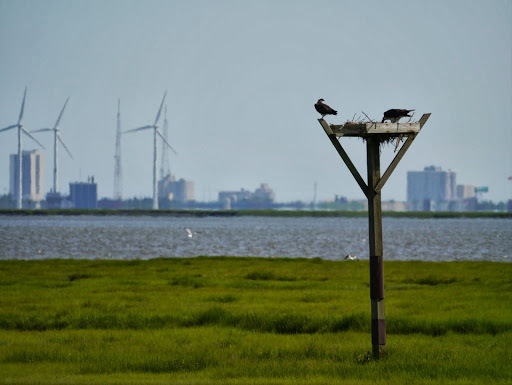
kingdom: Animalia
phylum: Chordata
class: Aves
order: Accipitriformes
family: Pandionidae
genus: Pandion
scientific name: Pandion haliaetus
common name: Osprey
